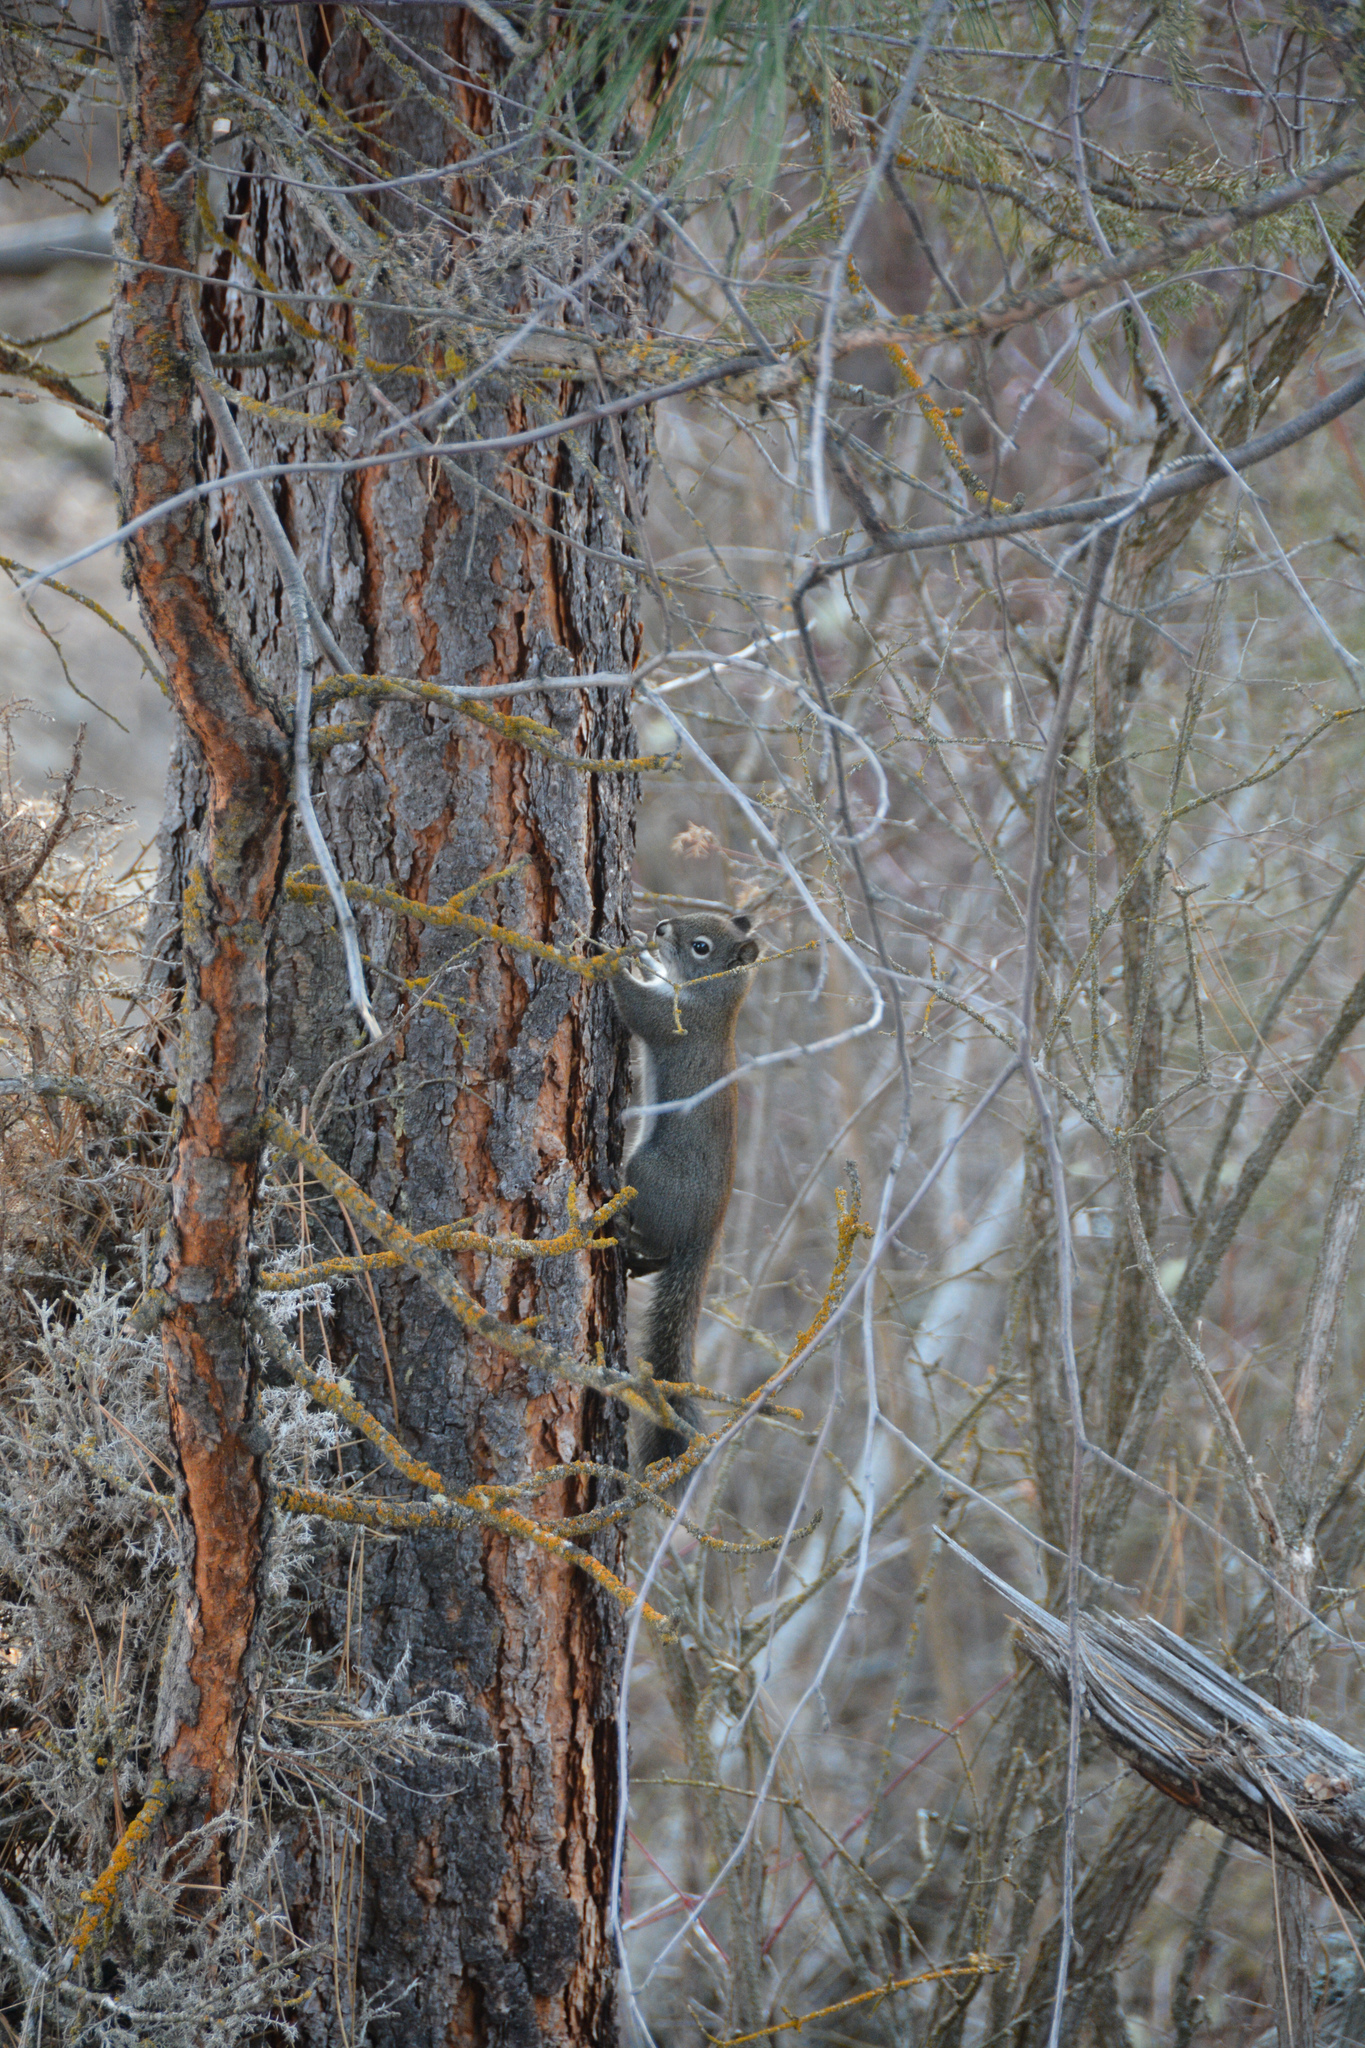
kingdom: Animalia
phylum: Chordata
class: Mammalia
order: Rodentia
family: Sciuridae
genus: Tamiasciurus
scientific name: Tamiasciurus hudsonicus
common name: Red squirrel
